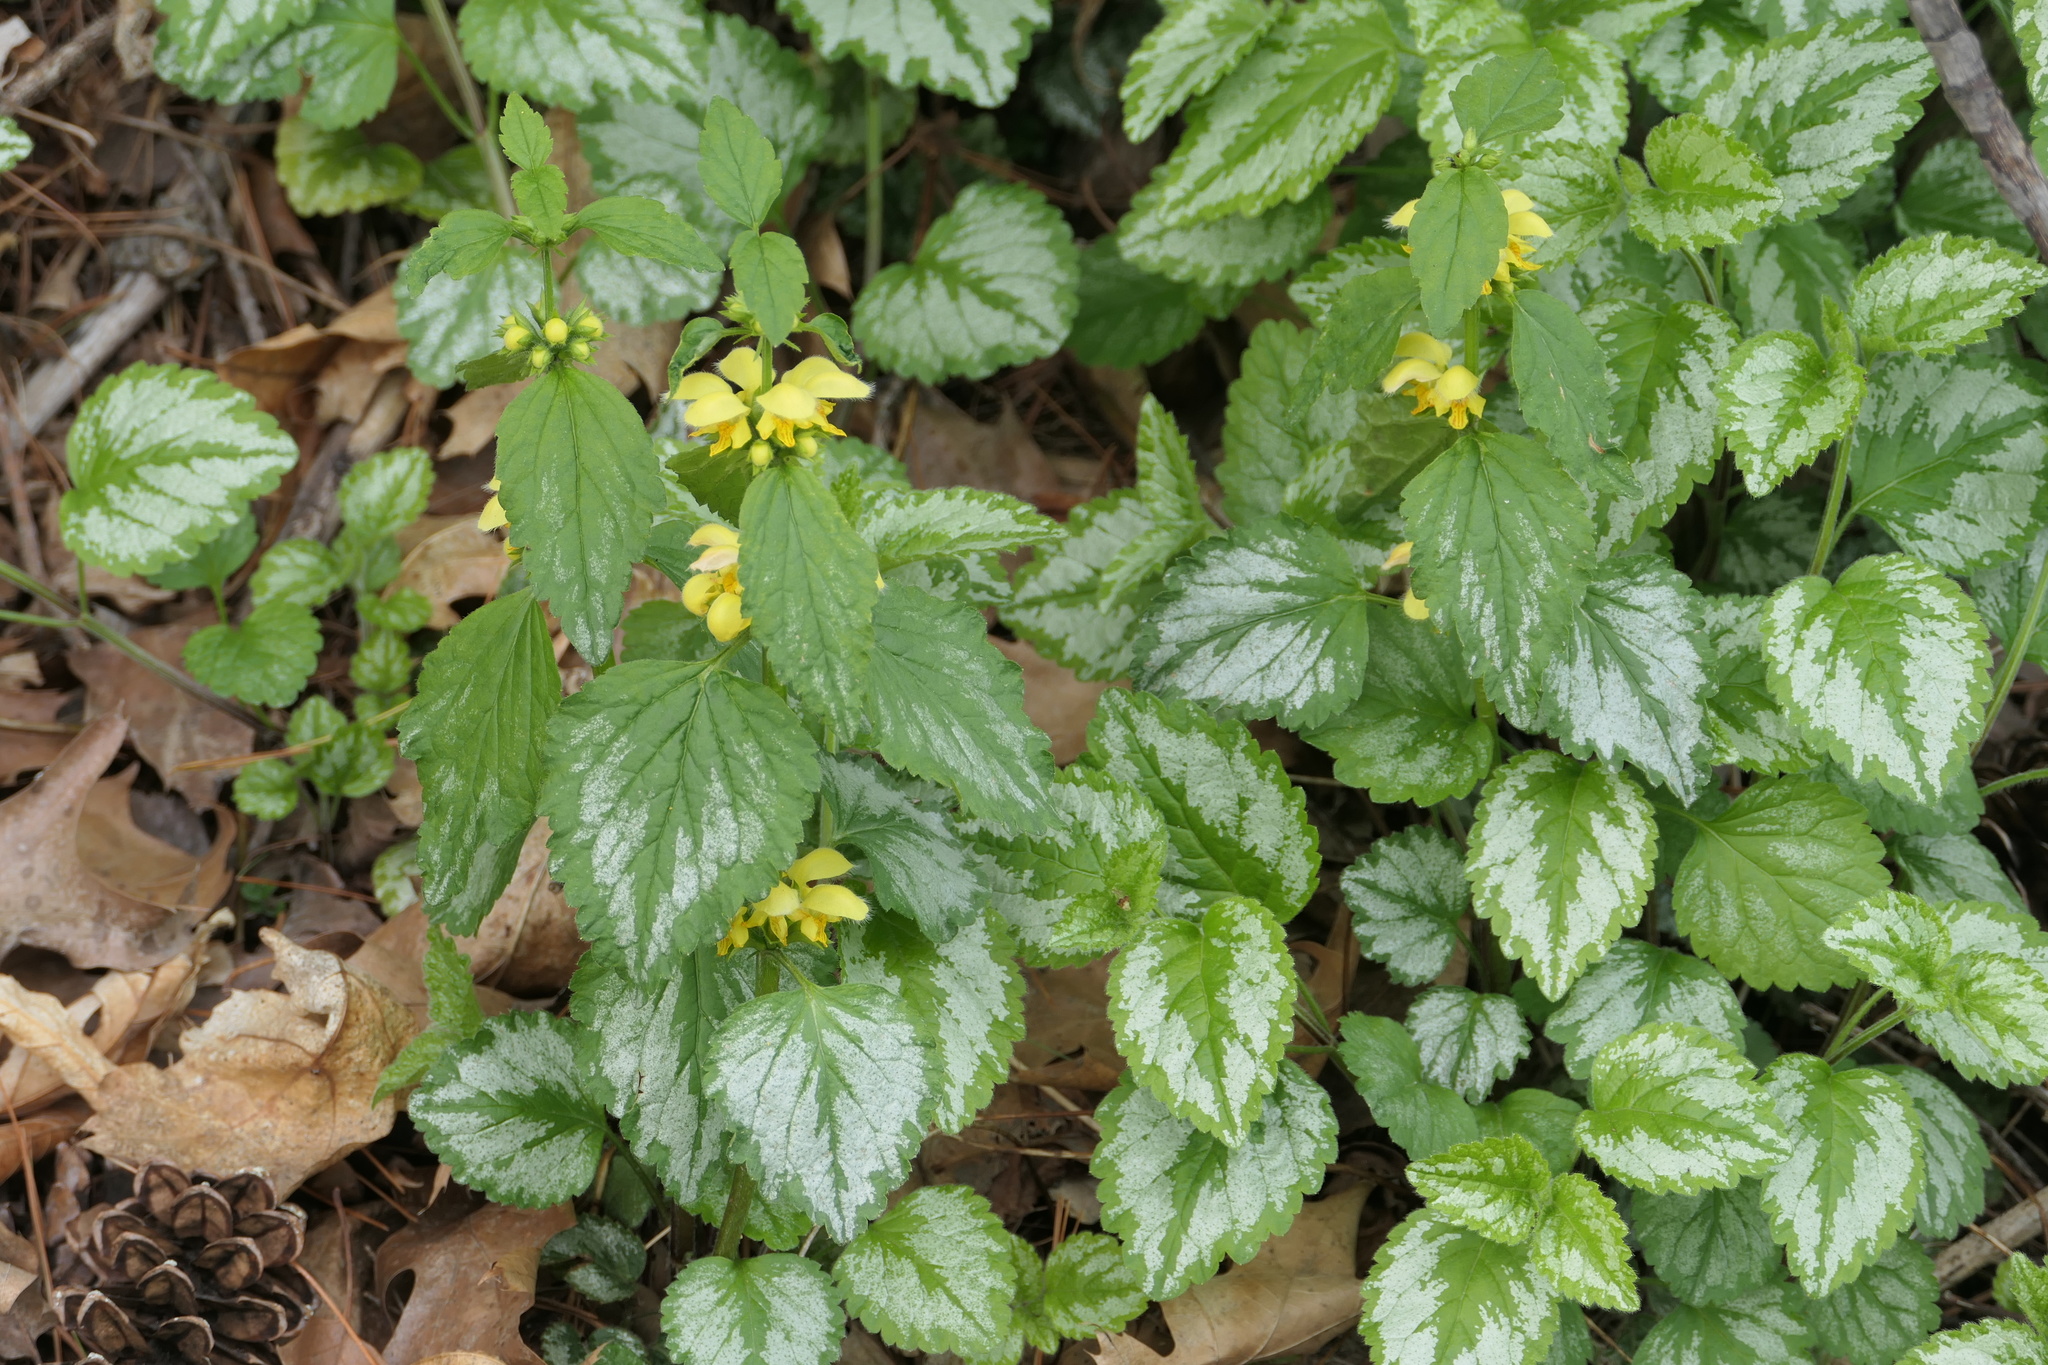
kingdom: Plantae
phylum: Tracheophyta
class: Magnoliopsida
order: Lamiales
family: Lamiaceae
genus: Lamium
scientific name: Lamium galeobdolon
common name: Yellow archangel
